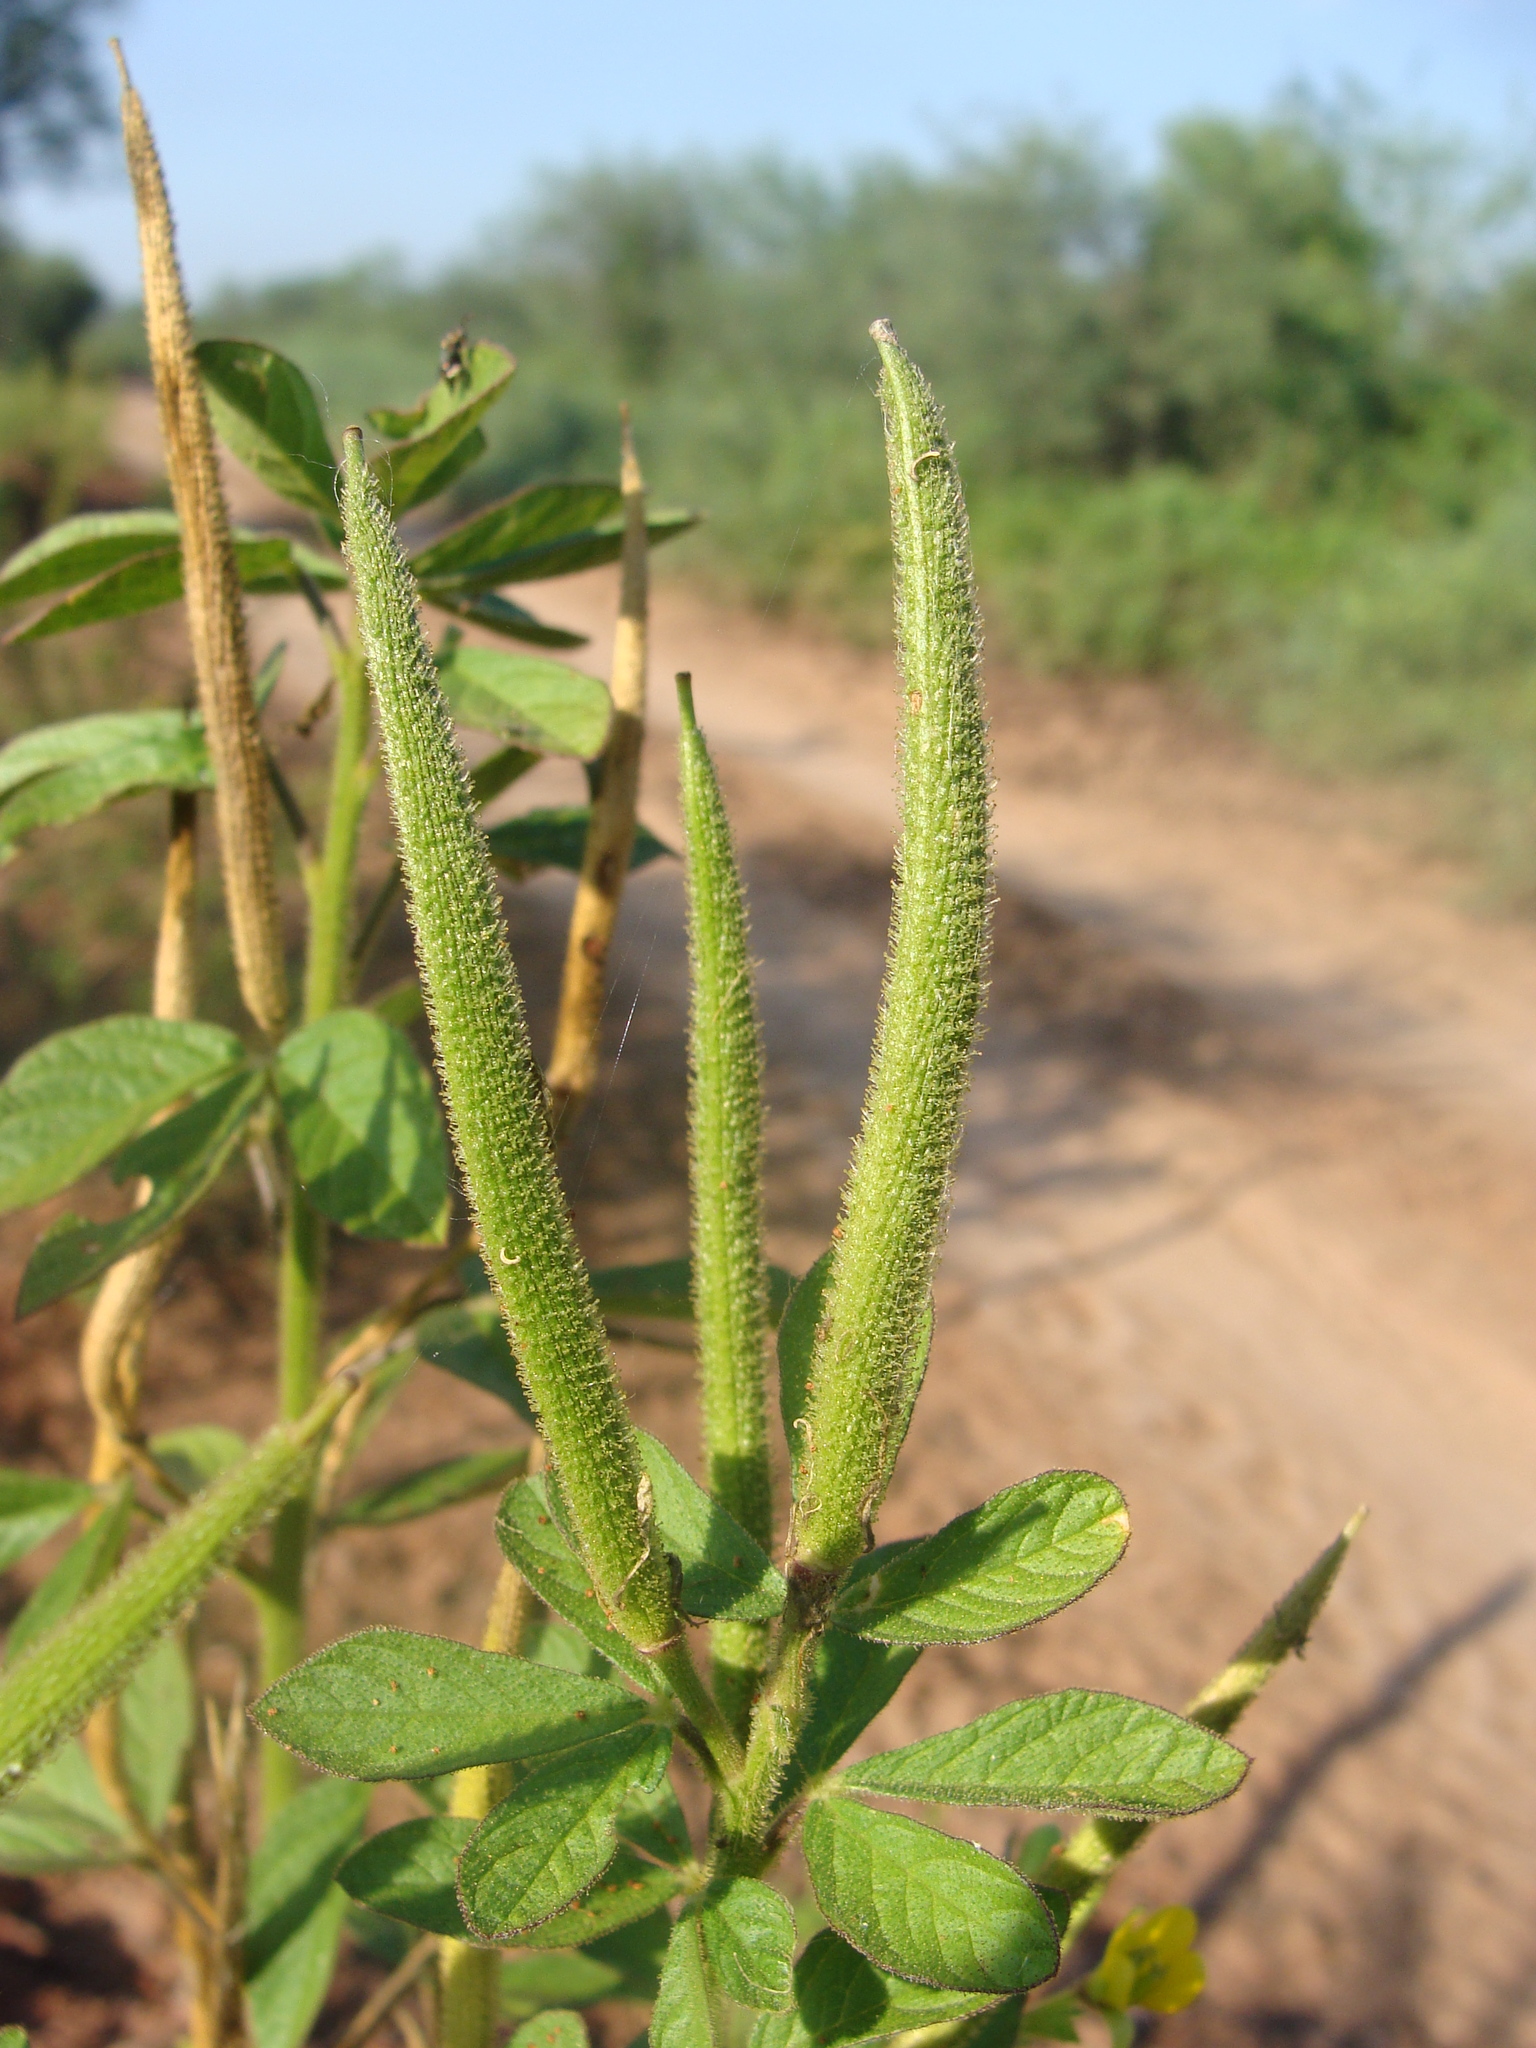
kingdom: Plantae
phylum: Tracheophyta
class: Magnoliopsida
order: Brassicales
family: Cleomaceae
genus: Arivela
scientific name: Arivela viscosa
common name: Asian spiderflower
